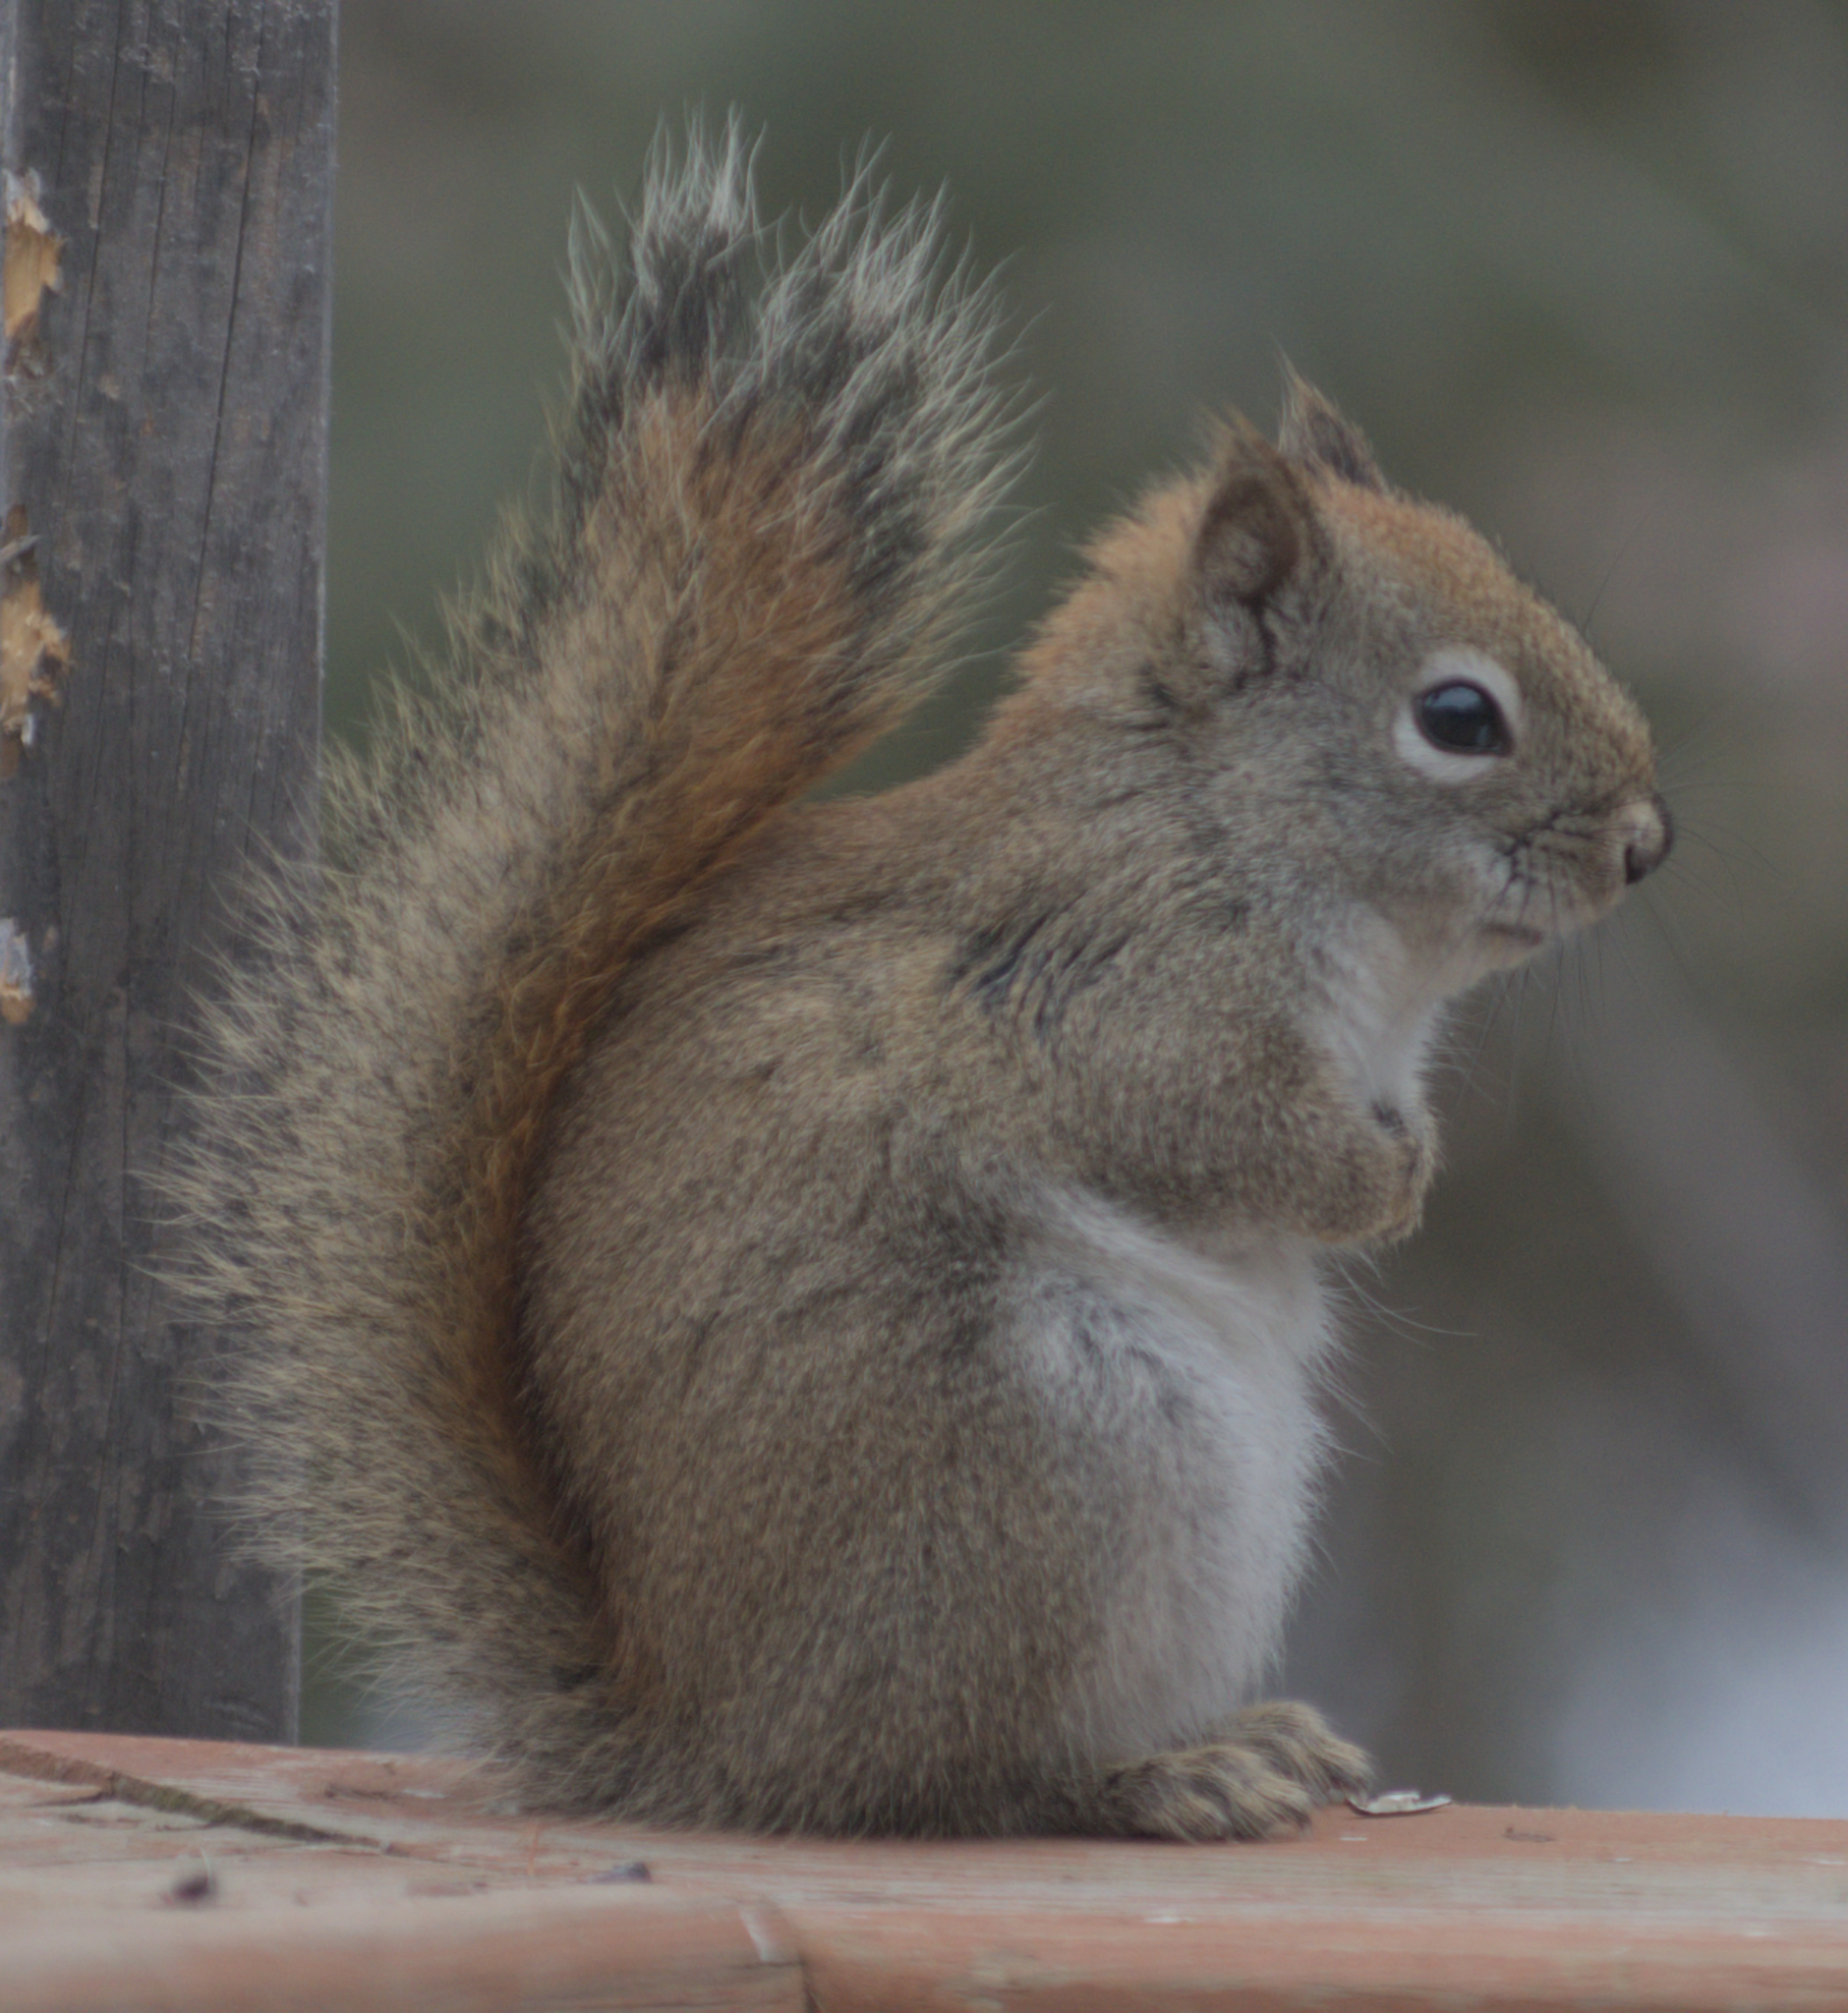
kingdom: Animalia
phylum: Chordata
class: Mammalia
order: Rodentia
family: Sciuridae
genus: Tamiasciurus
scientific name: Tamiasciurus hudsonicus
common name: Red squirrel
